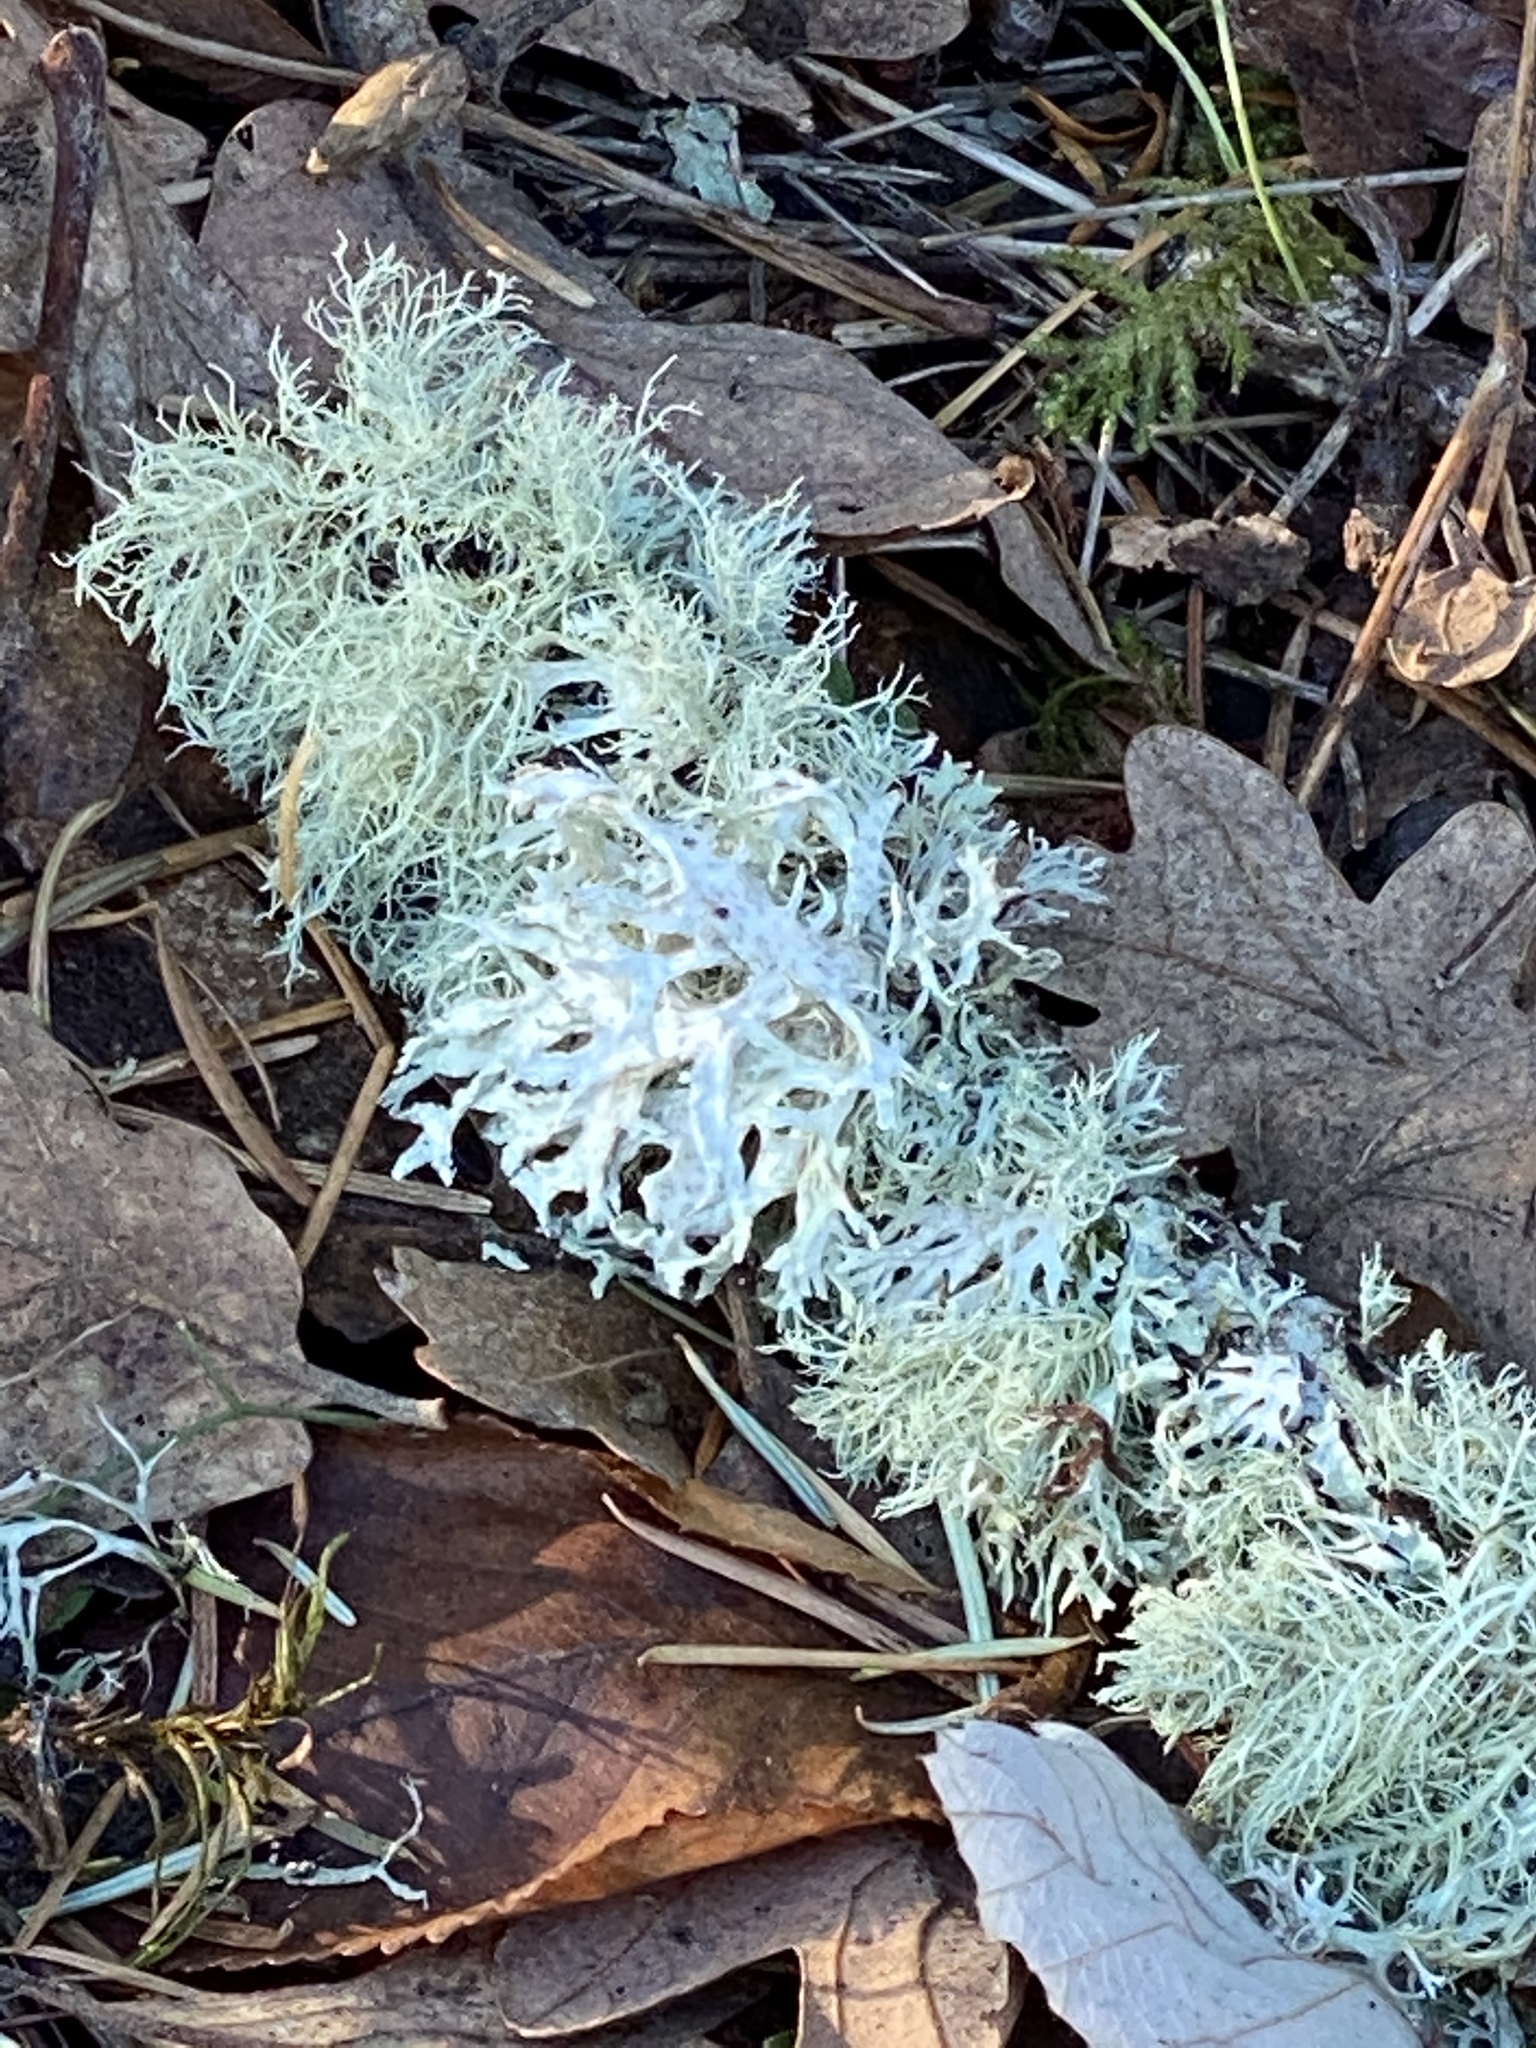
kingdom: Fungi
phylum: Ascomycota
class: Lecanoromycetes
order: Lecanorales
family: Parmeliaceae
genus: Evernia
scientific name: Evernia prunastri
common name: Oak moss
